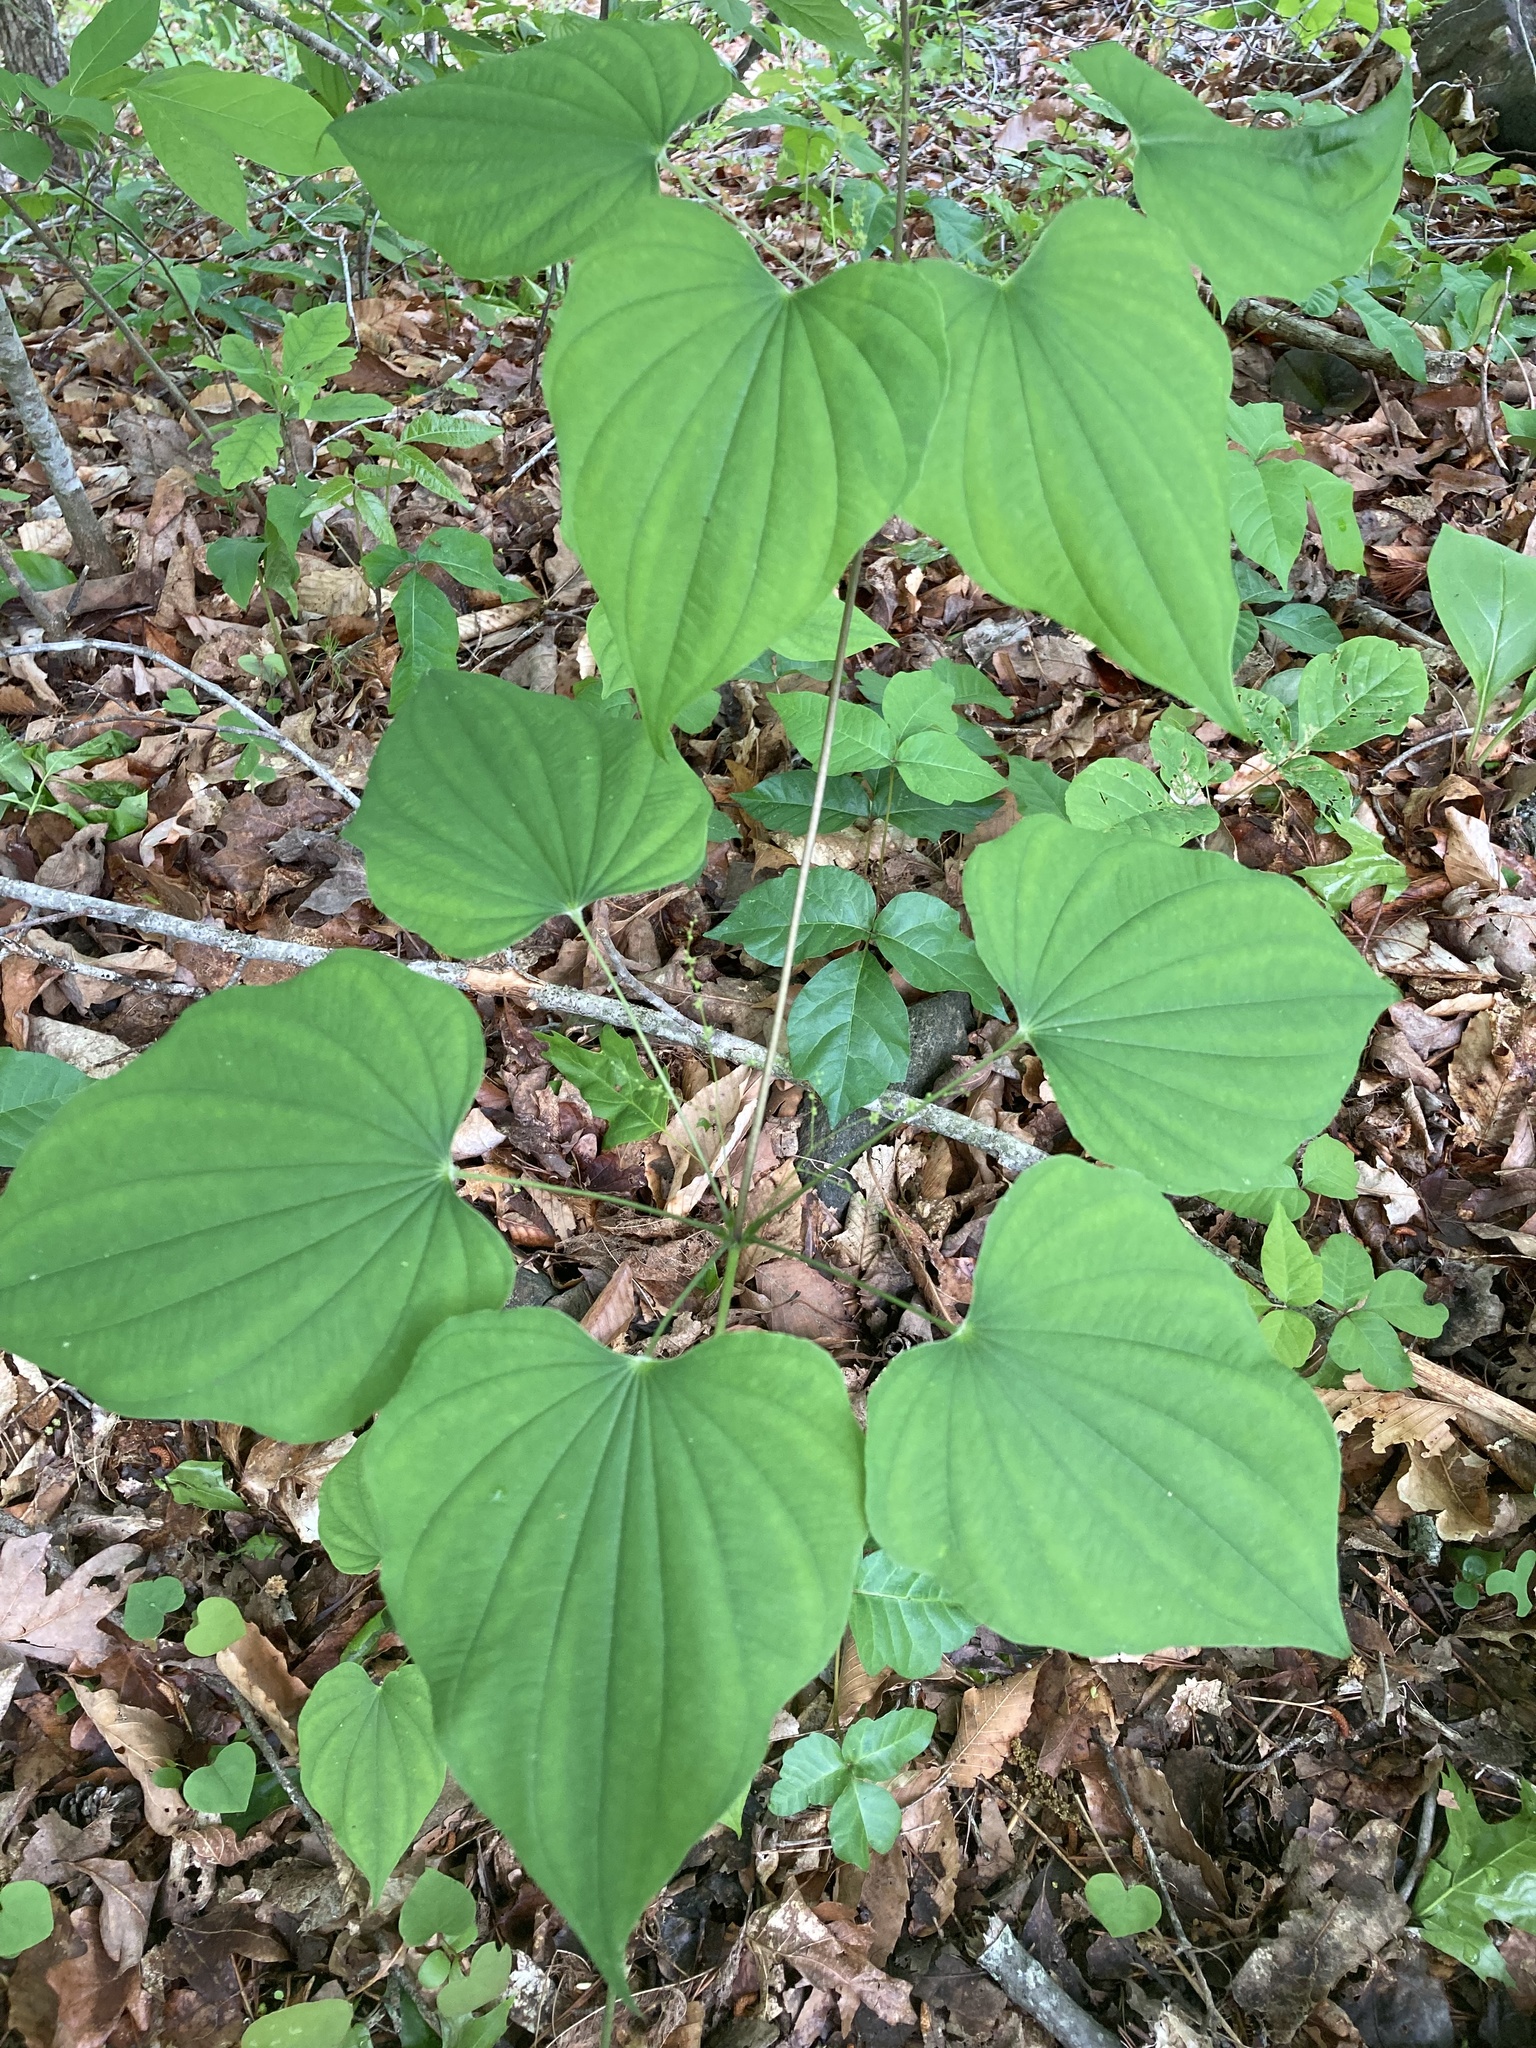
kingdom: Plantae
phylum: Tracheophyta
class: Liliopsida
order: Dioscoreales
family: Dioscoreaceae
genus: Dioscorea
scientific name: Dioscorea villosa
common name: Wild yam
